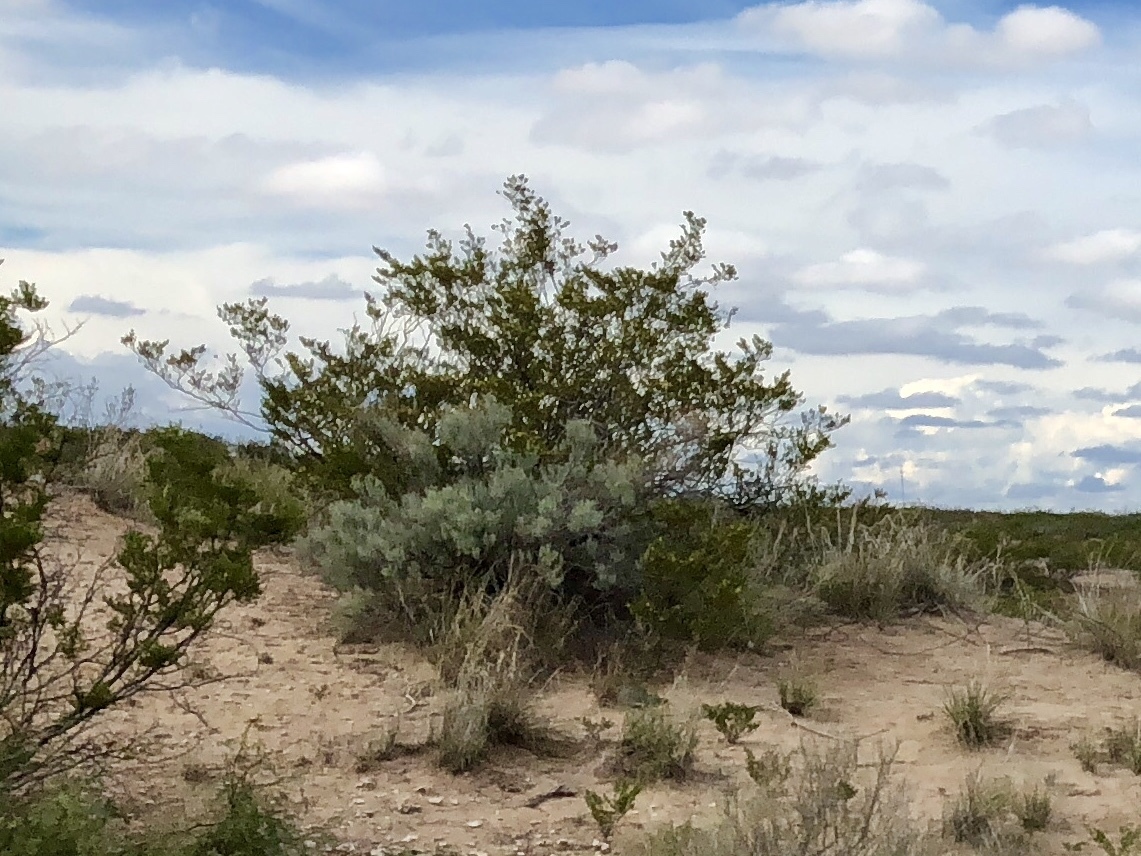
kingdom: Plantae
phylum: Tracheophyta
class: Magnoliopsida
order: Zygophyllales
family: Zygophyllaceae
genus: Larrea
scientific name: Larrea tridentata
